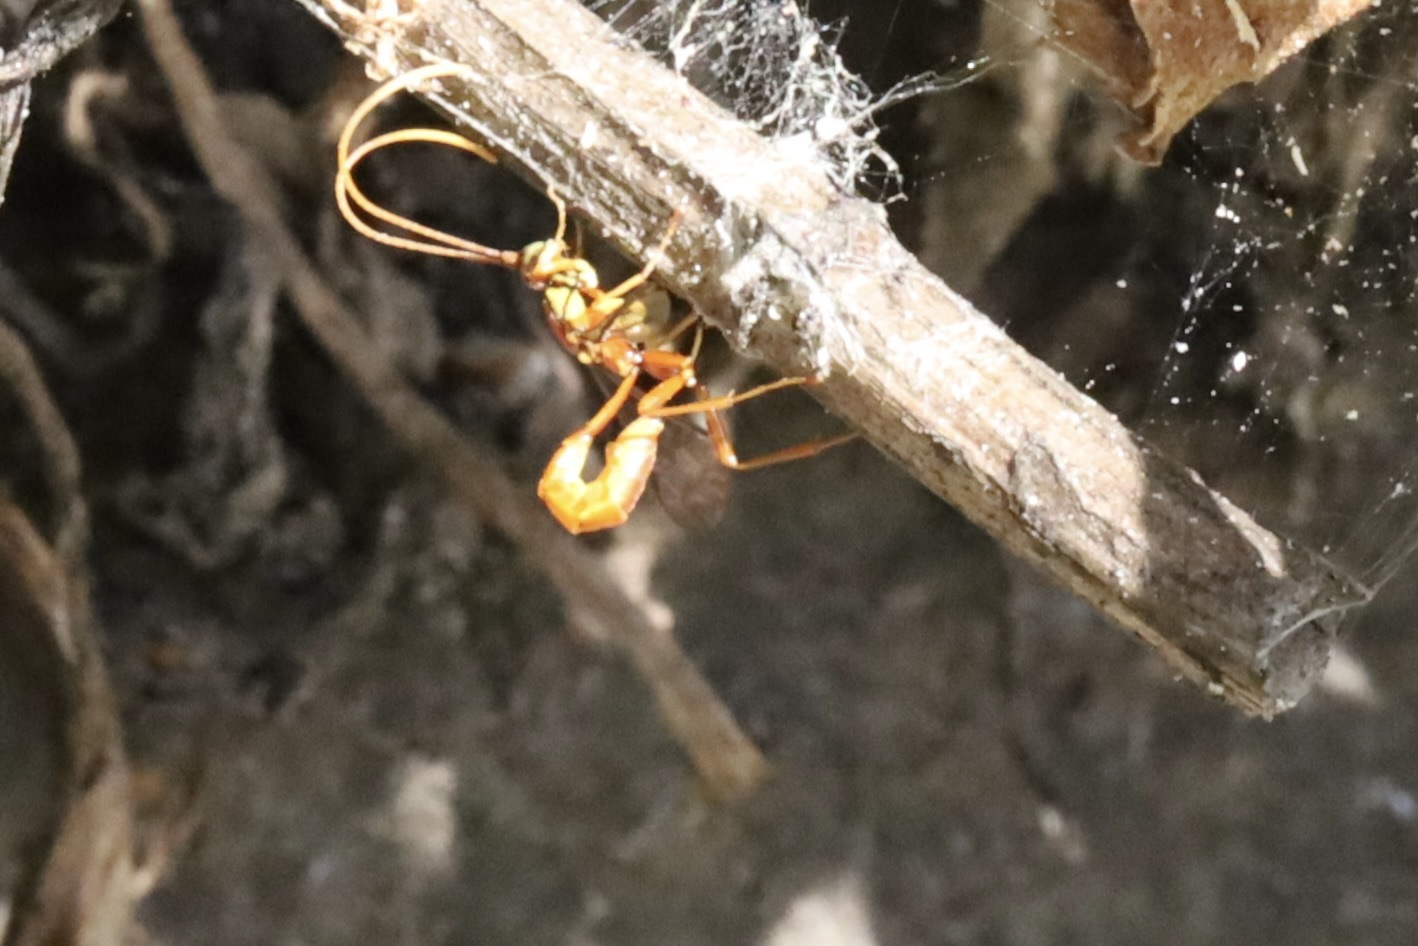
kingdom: Animalia
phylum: Arthropoda
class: Insecta
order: Hymenoptera
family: Ichneumonidae
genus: Grotea
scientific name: Grotea californica
